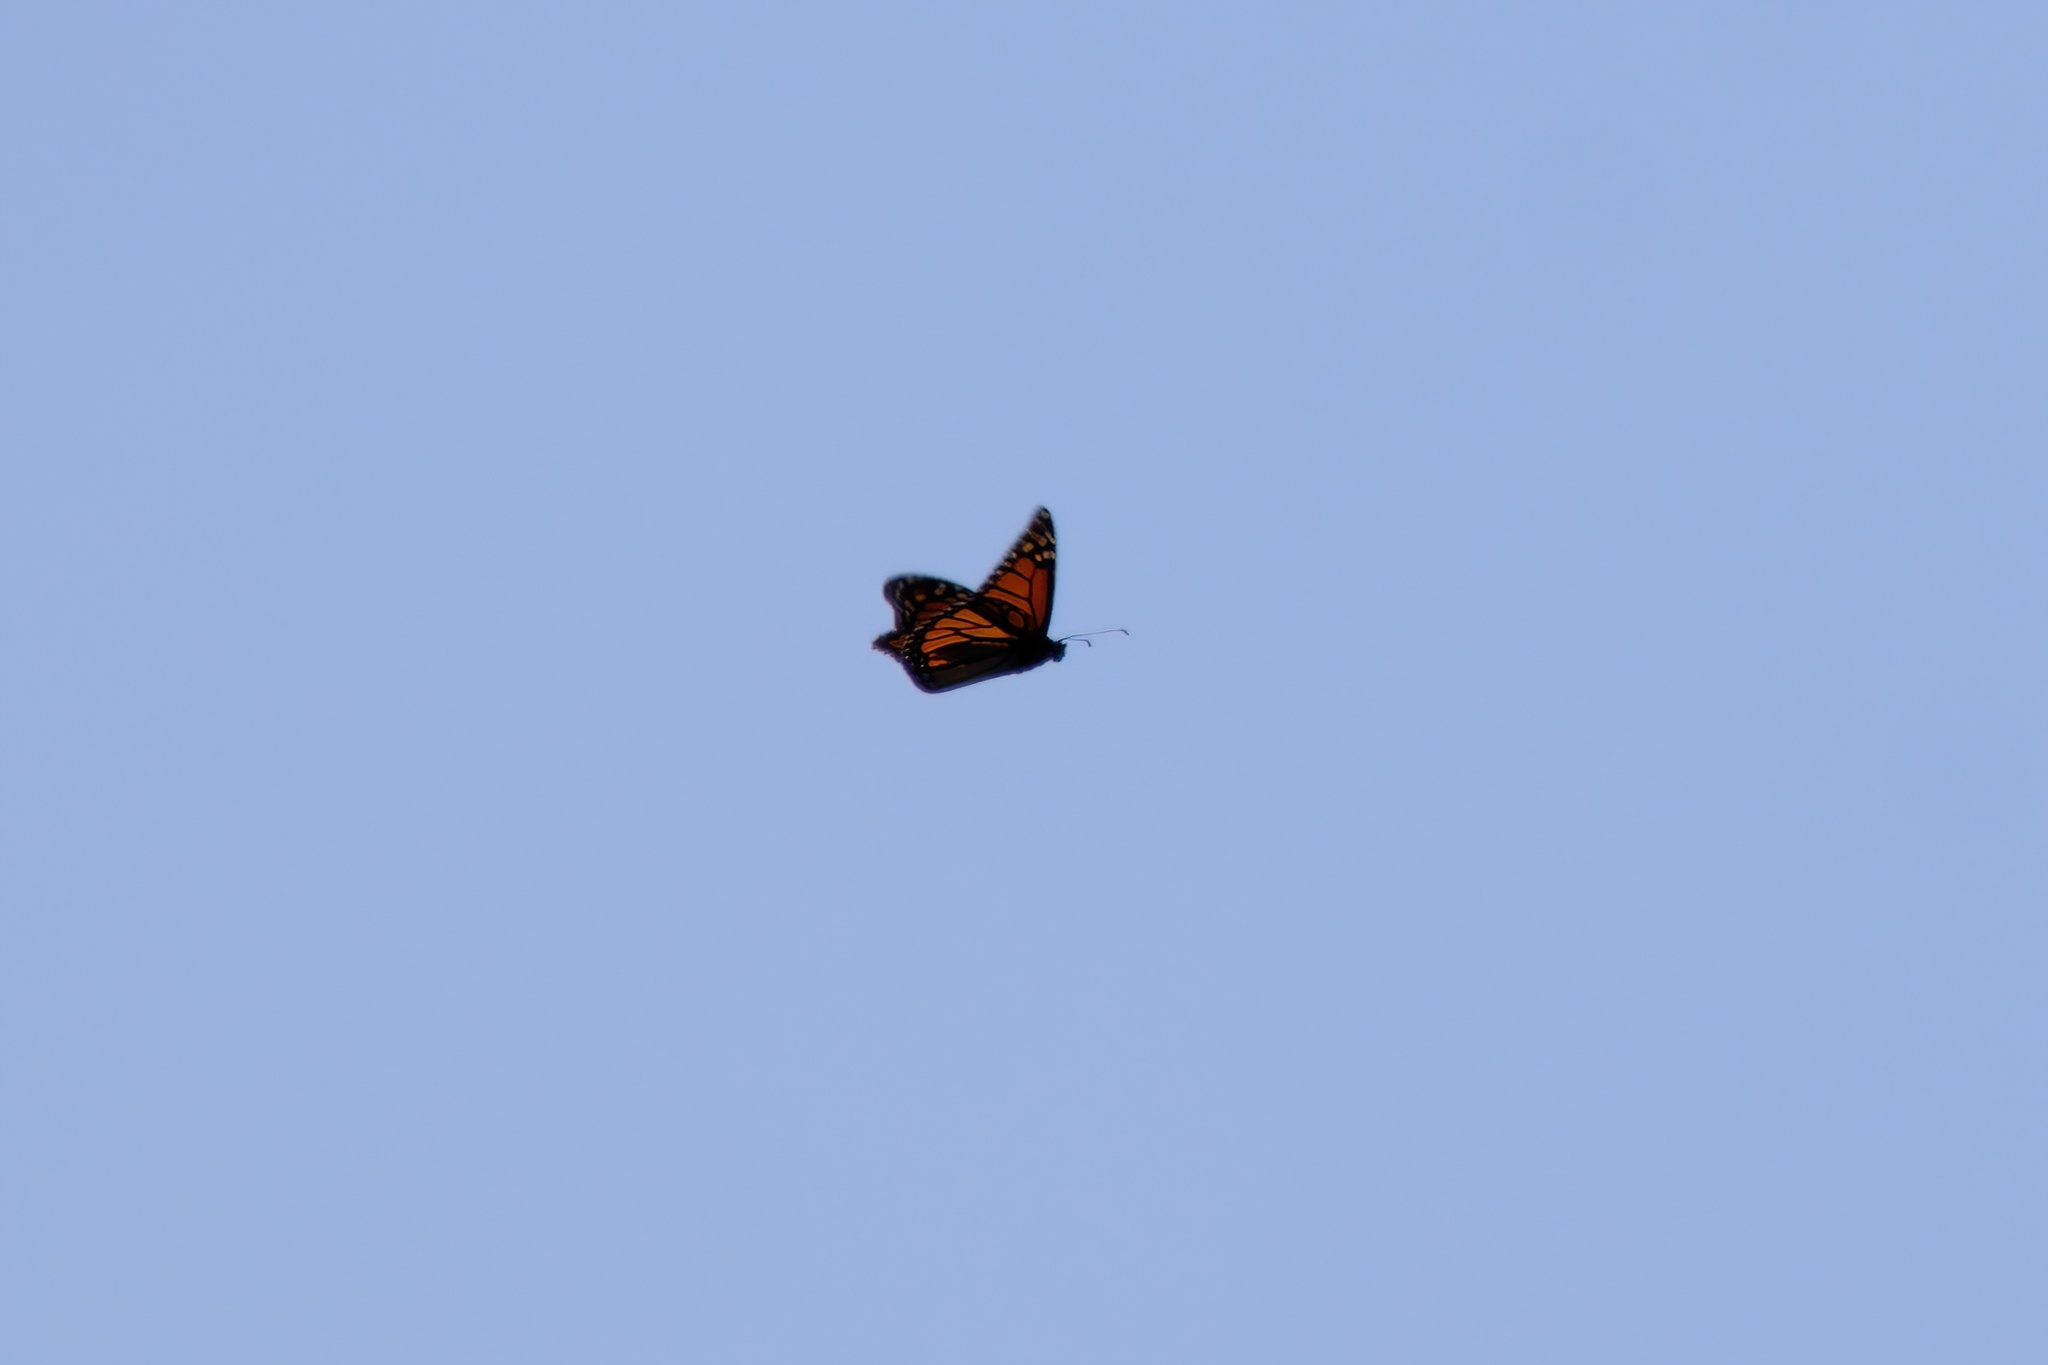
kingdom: Animalia
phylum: Arthropoda
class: Insecta
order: Lepidoptera
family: Nymphalidae
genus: Danaus
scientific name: Danaus plexippus
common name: Monarch
